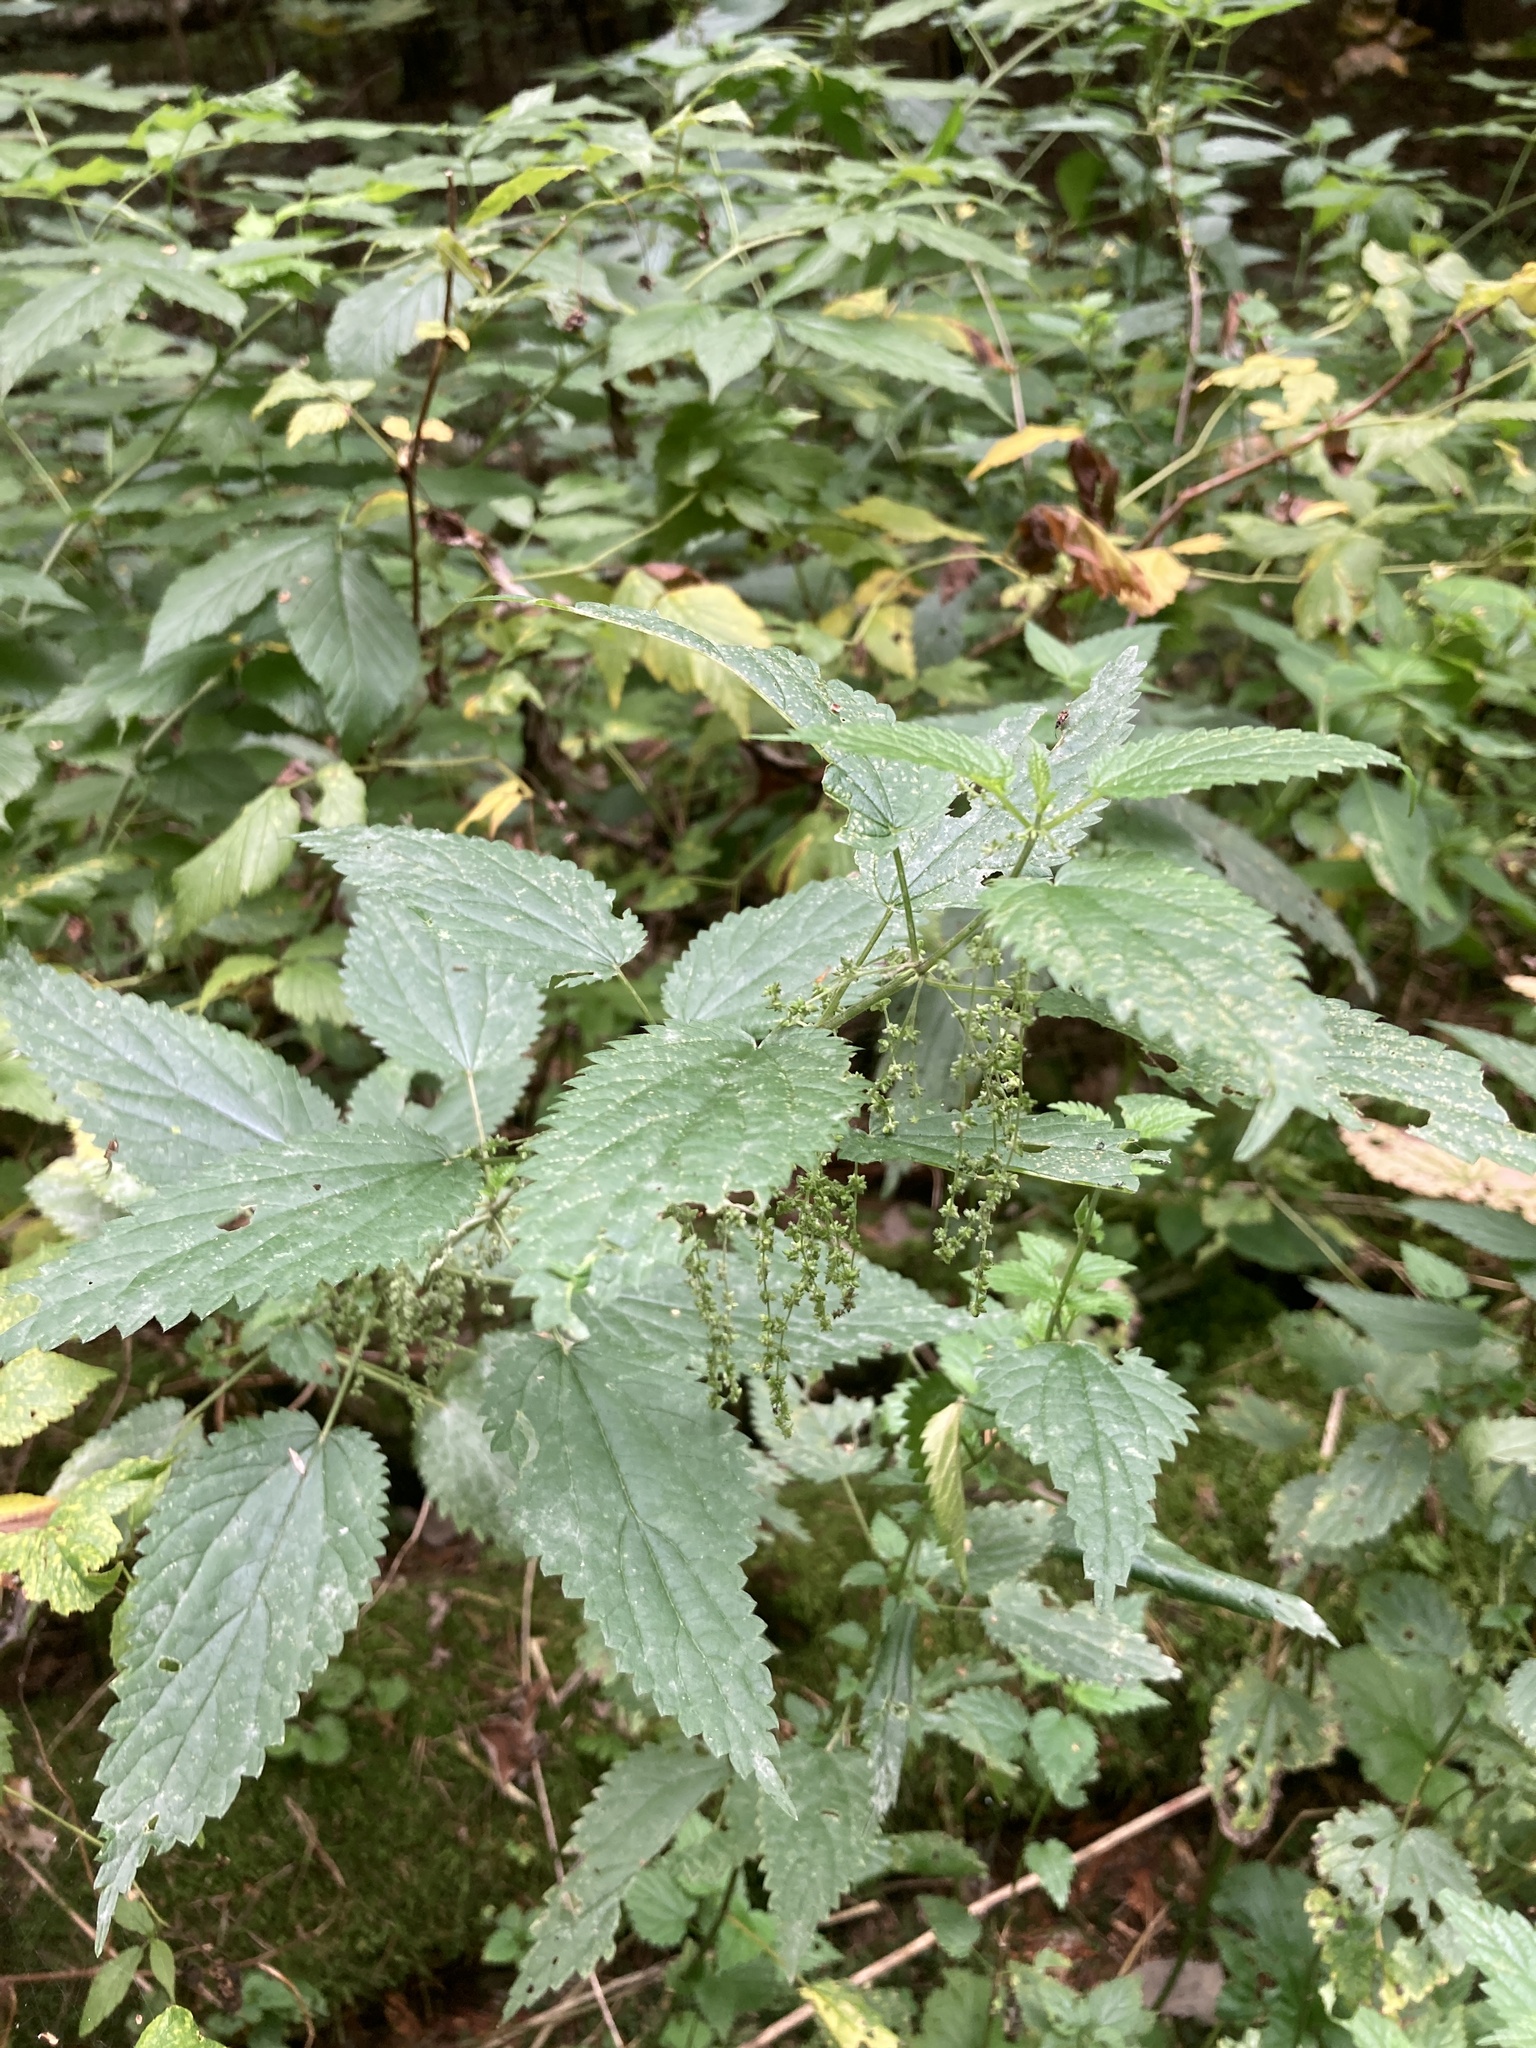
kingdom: Plantae
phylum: Tracheophyta
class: Magnoliopsida
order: Rosales
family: Urticaceae
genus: Urtica
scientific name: Urtica dioica
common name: Common nettle
